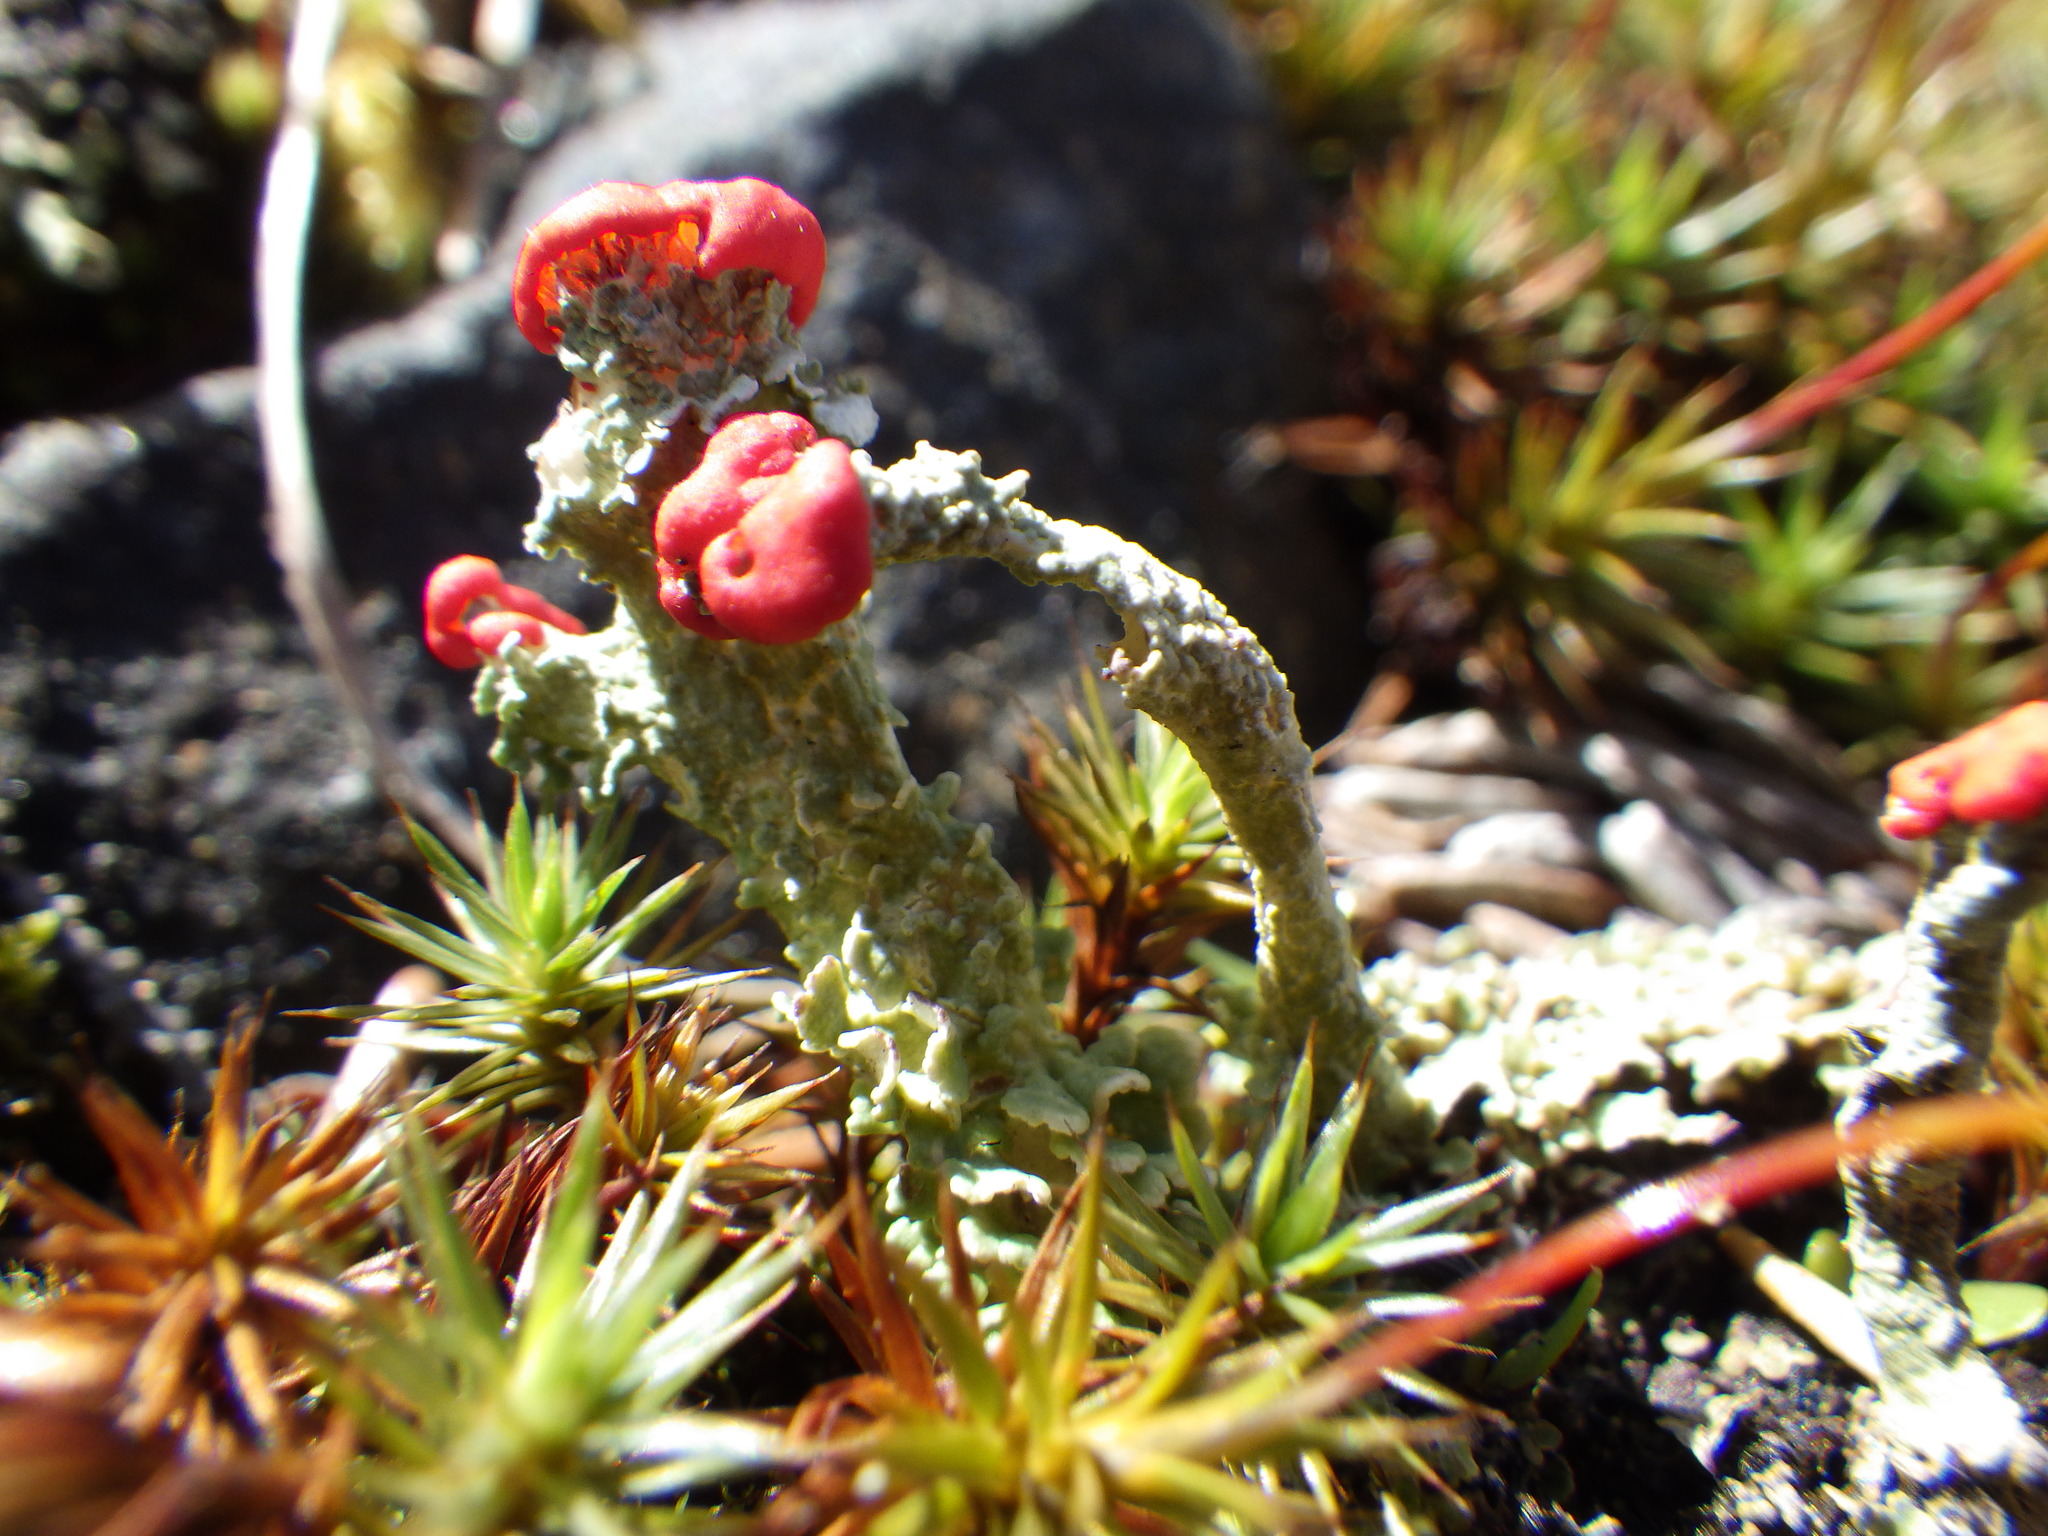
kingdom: Fungi
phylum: Ascomycota
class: Lecanoromycetes
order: Lecanorales
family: Cladoniaceae
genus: Cladonia
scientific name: Cladonia cristatella
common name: British soldier lichen
